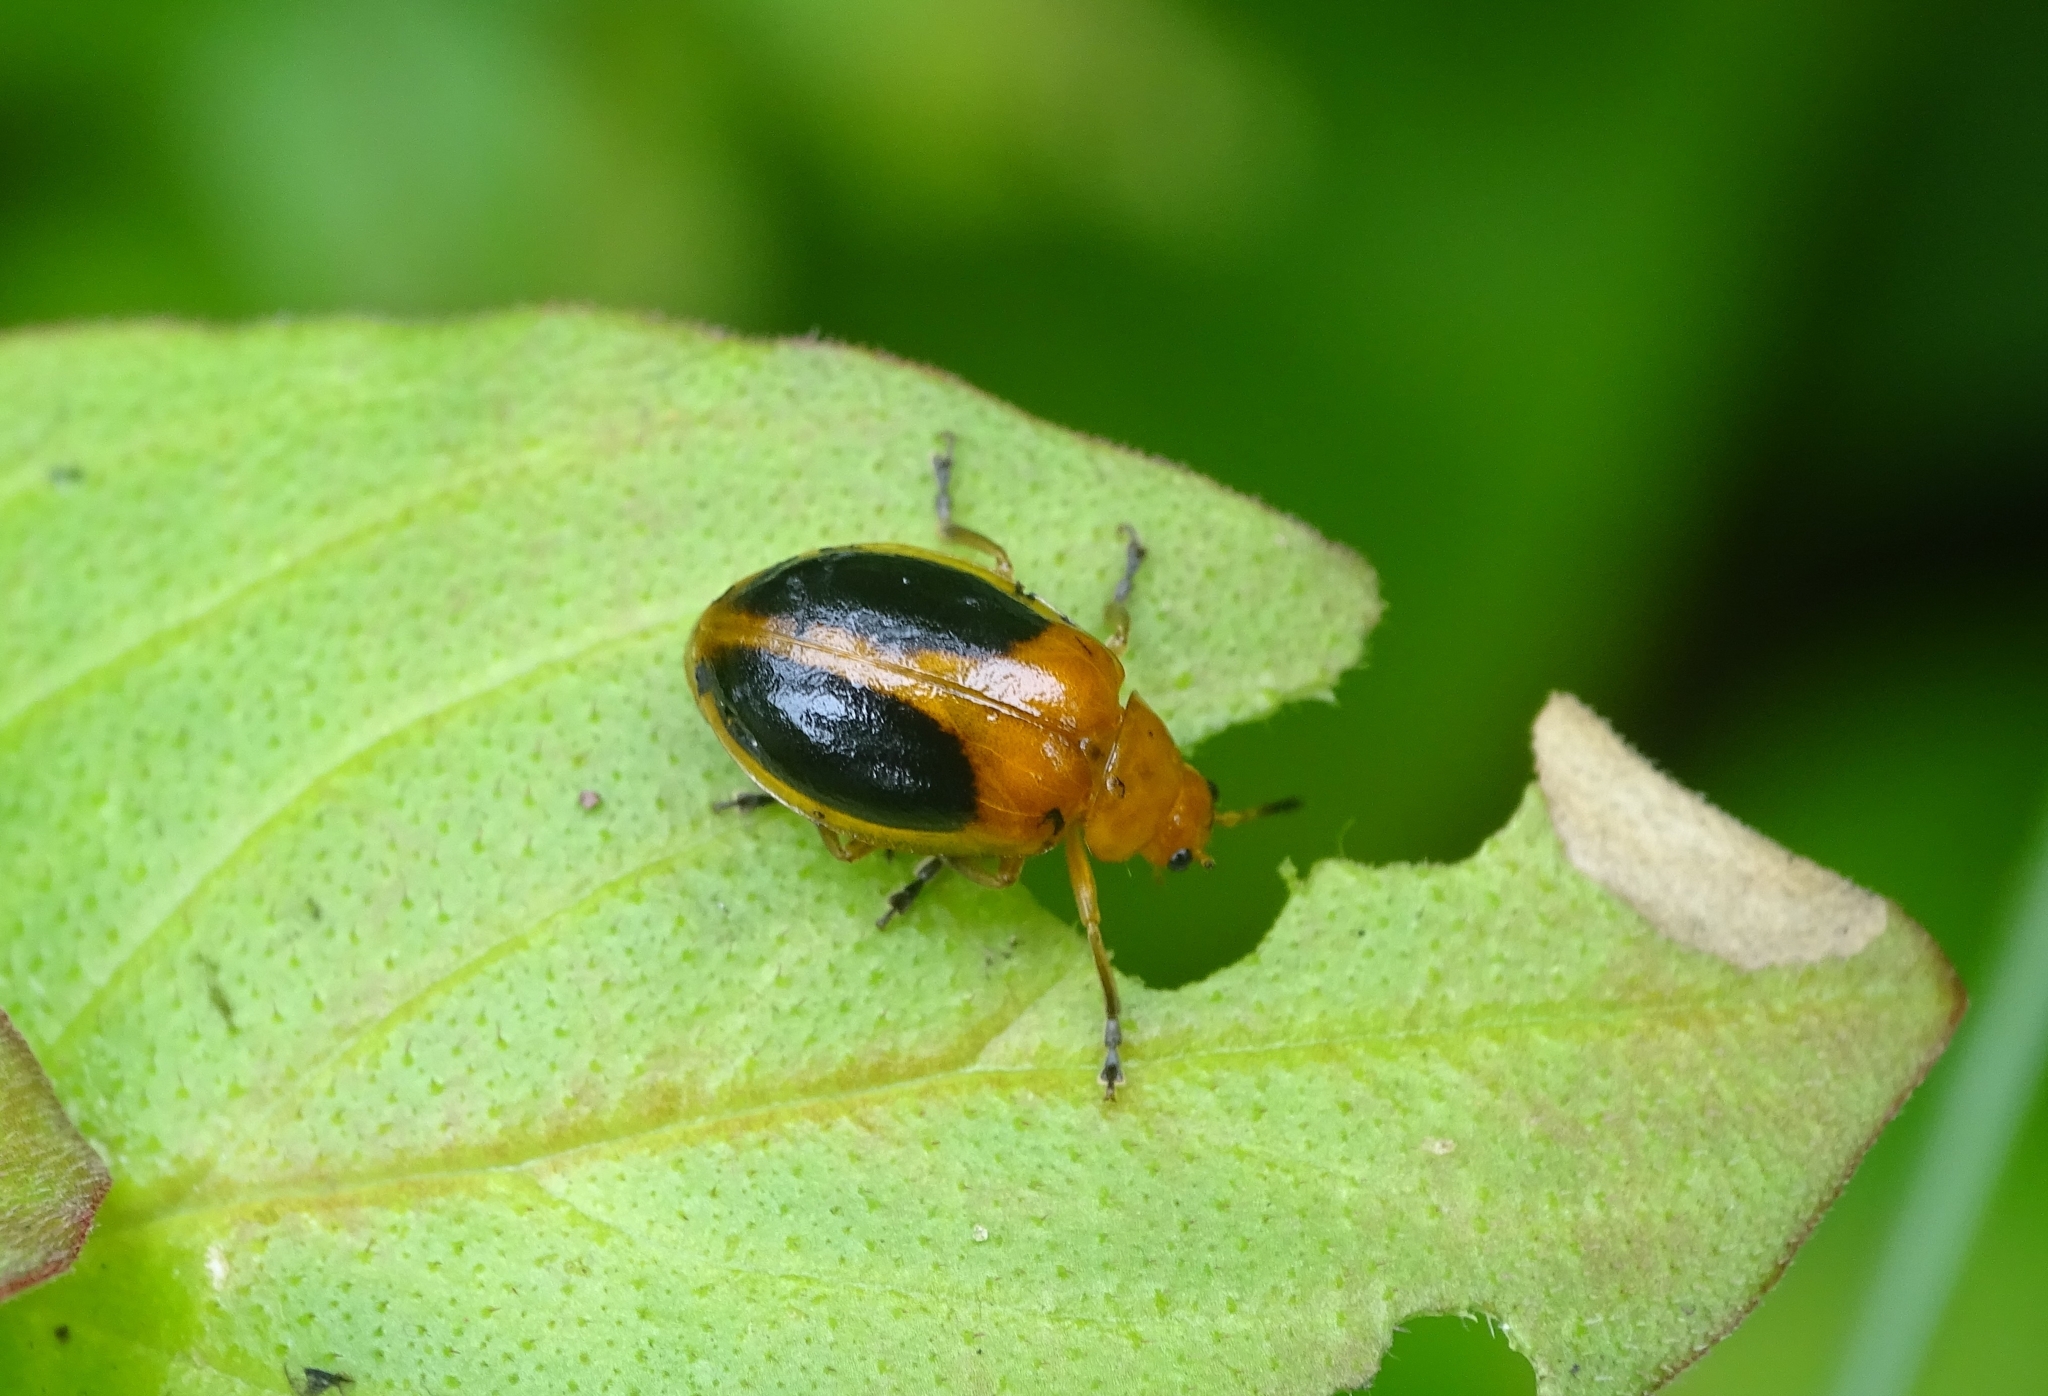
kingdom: Animalia
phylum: Arthropoda
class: Insecta
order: Coleoptera
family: Chrysomelidae
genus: Oides
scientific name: Oides affinis
